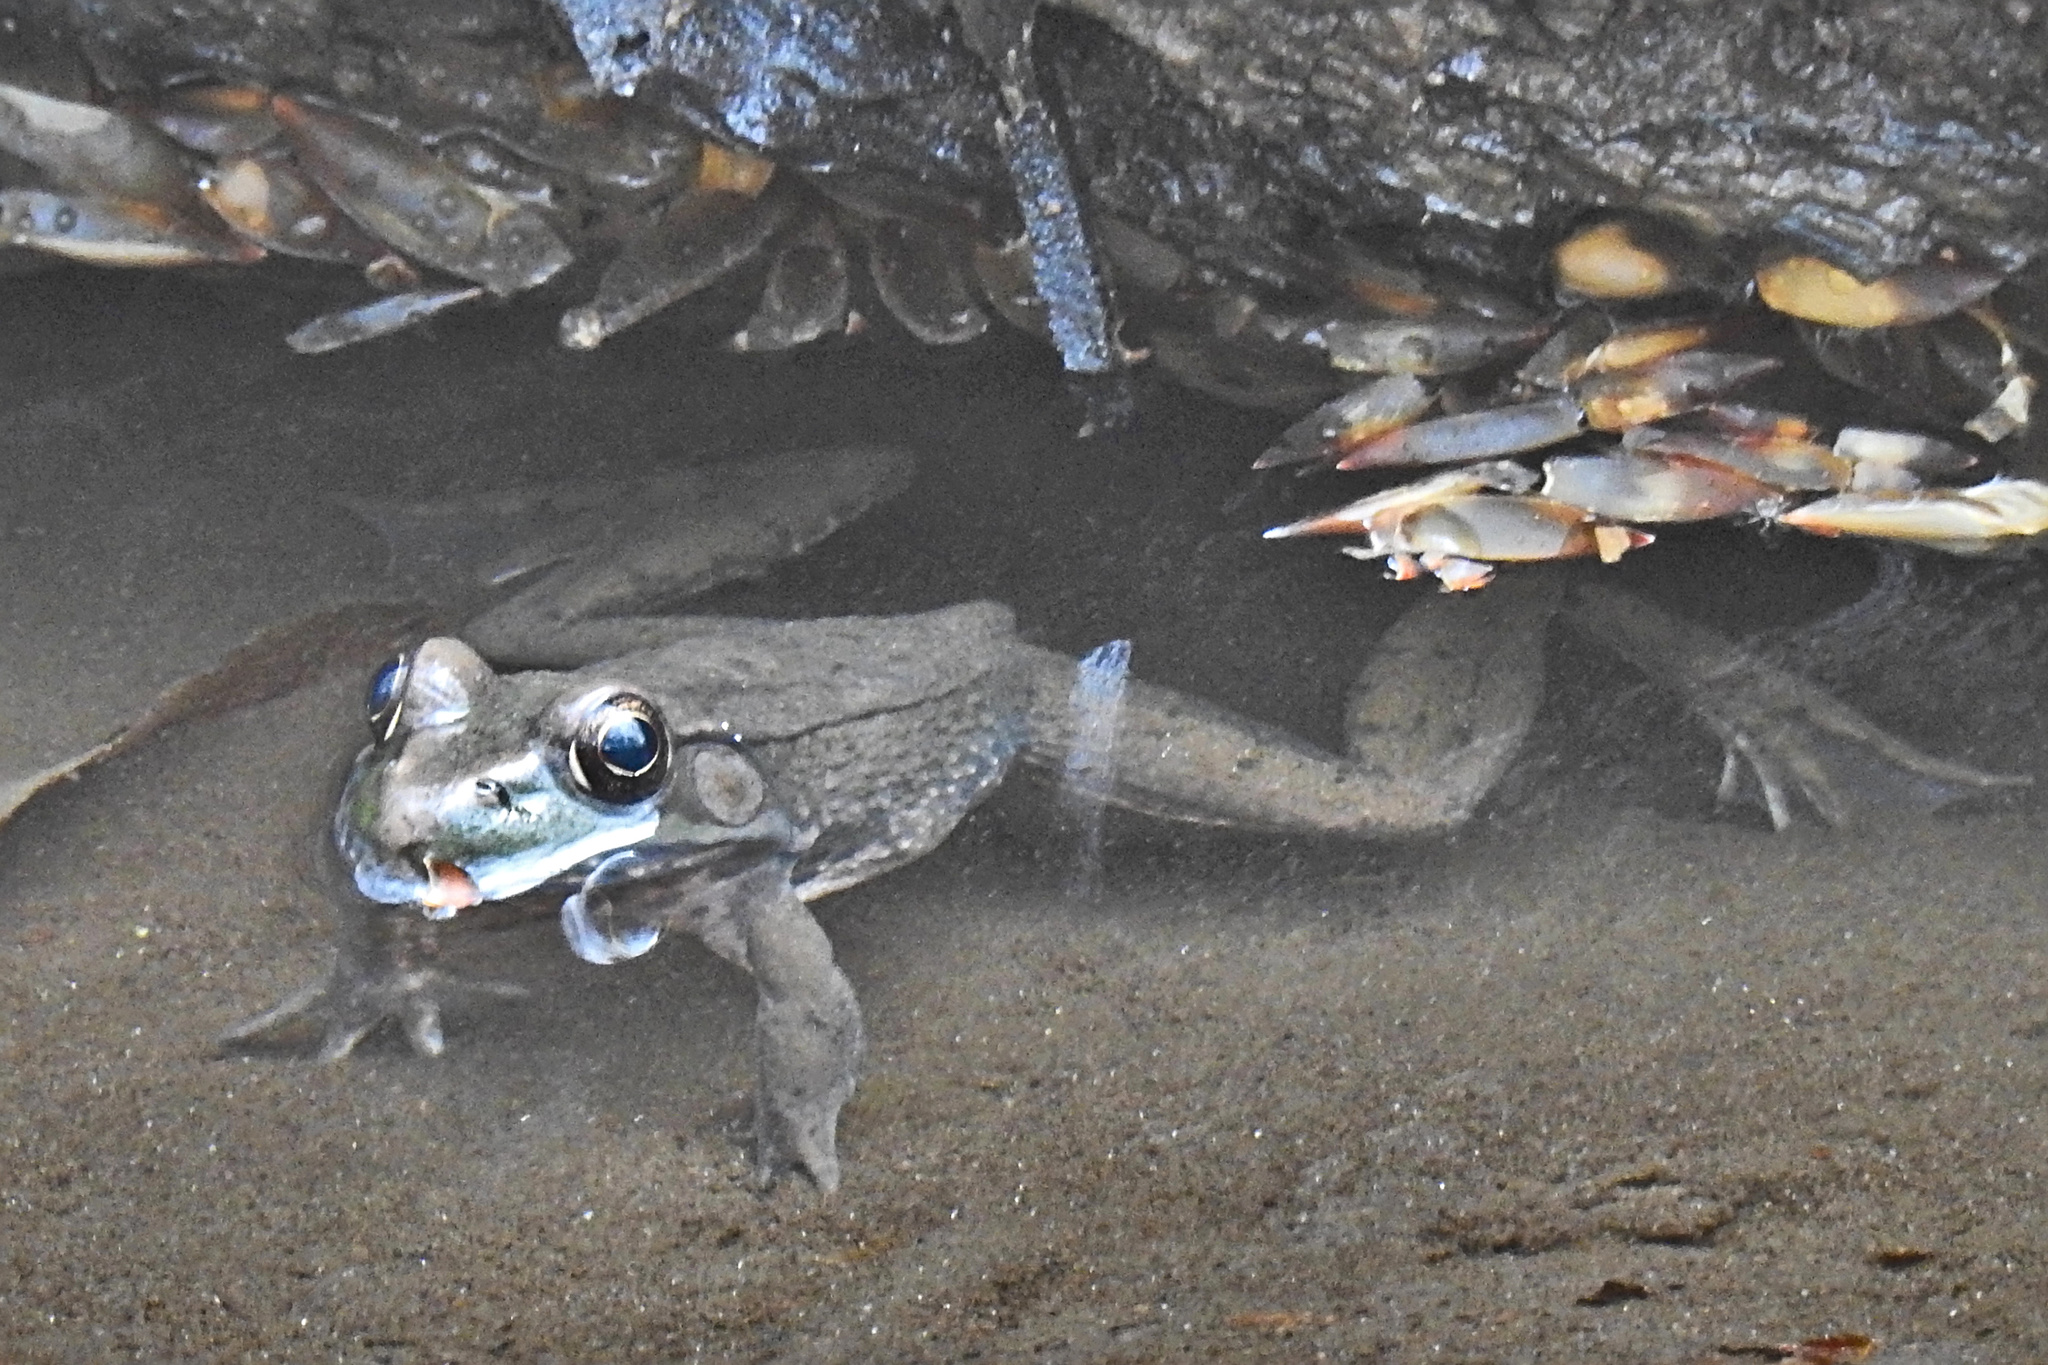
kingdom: Animalia
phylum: Chordata
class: Amphibia
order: Anura
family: Ranidae
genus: Lithobates
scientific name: Lithobates clamitans
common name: Green frog
